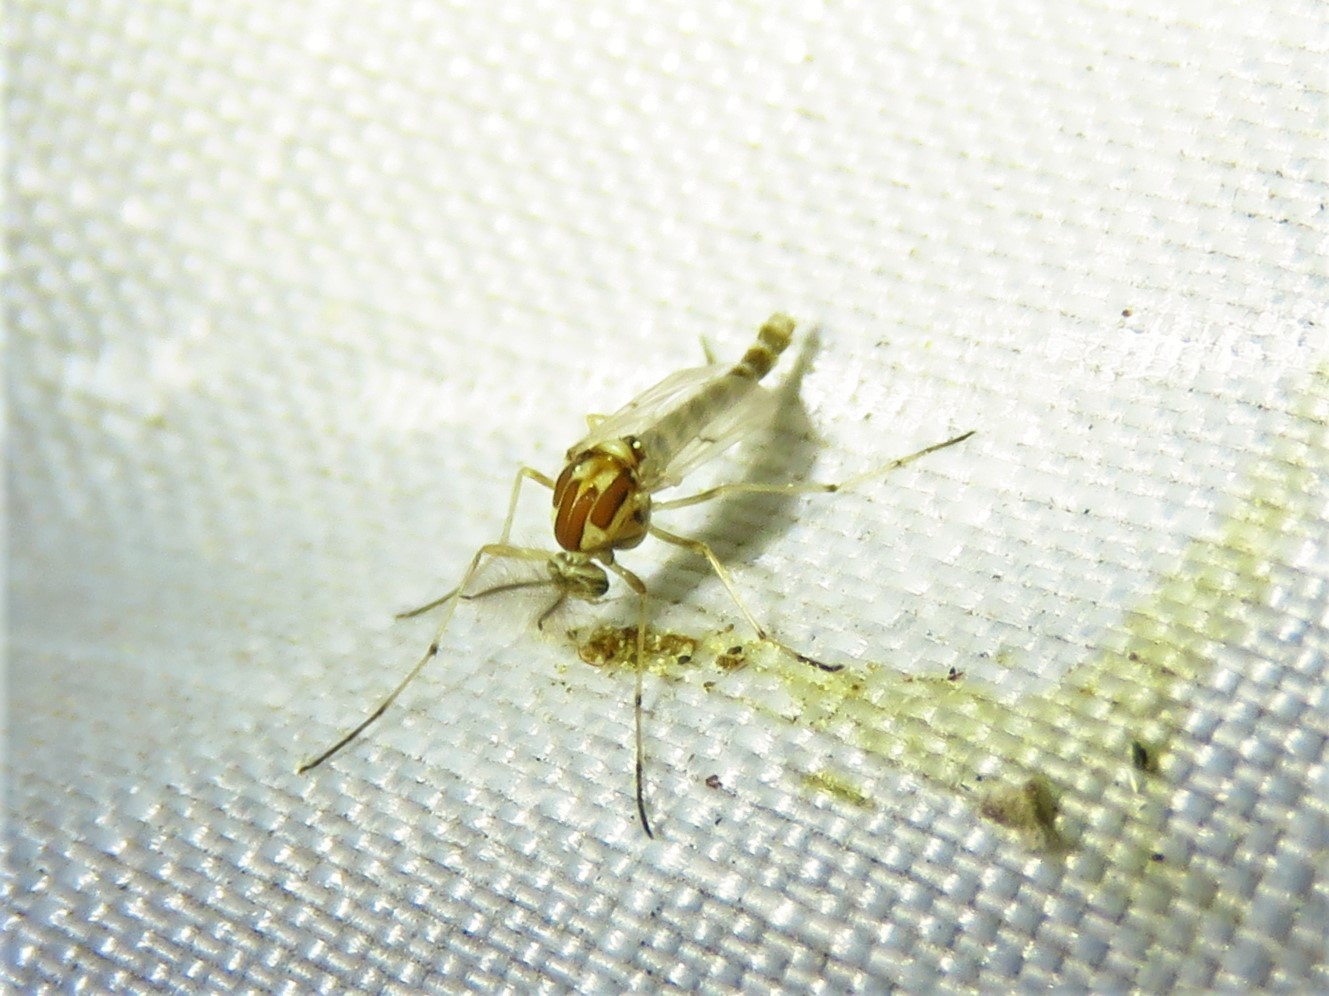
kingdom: Animalia
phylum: Arthropoda
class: Insecta
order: Diptera
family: Chironomidae
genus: Procladius
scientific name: Procladius bellus
